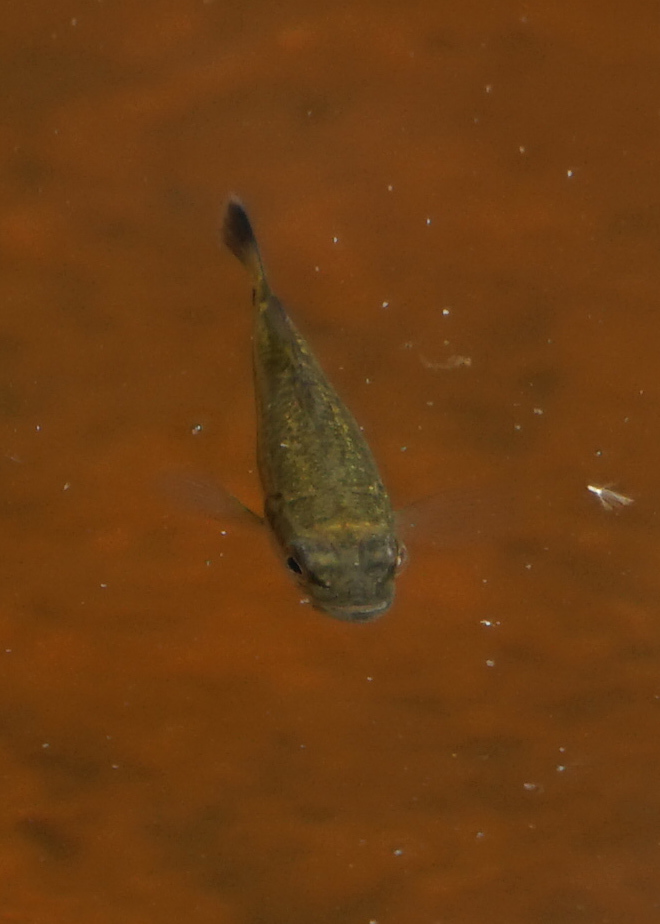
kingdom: Animalia
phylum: Chordata
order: Perciformes
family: Centrarchidae
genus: Micropterus
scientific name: Micropterus
